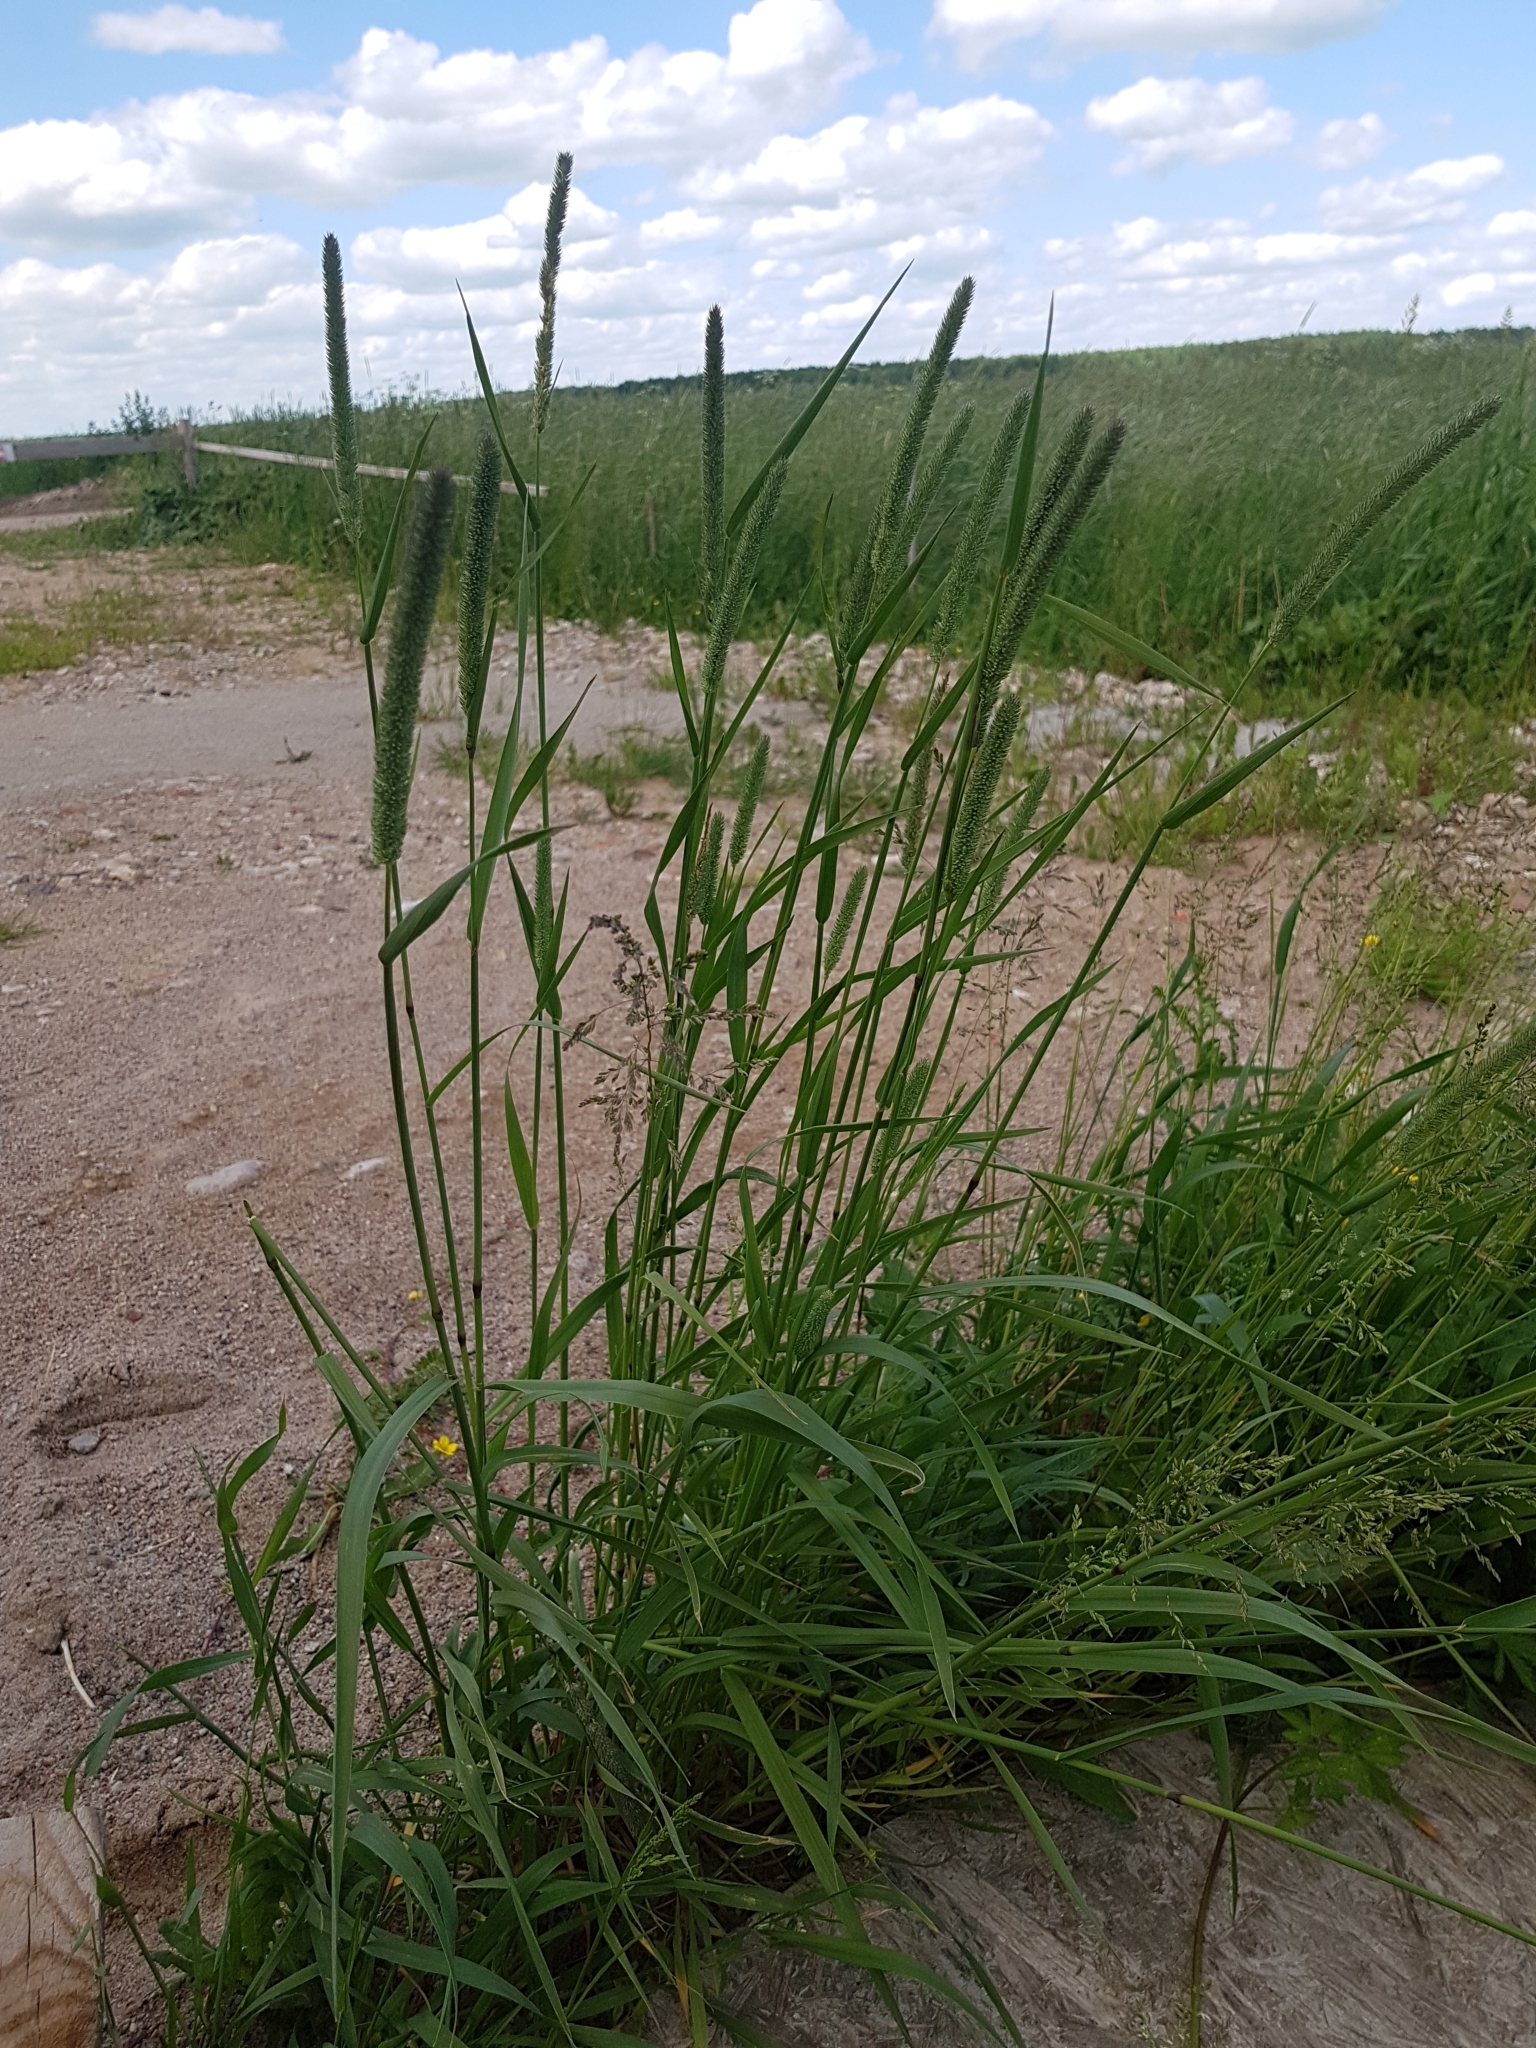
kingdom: Plantae
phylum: Tracheophyta
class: Liliopsida
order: Poales
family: Poaceae
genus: Phleum
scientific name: Phleum pratense
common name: Timothy grass
